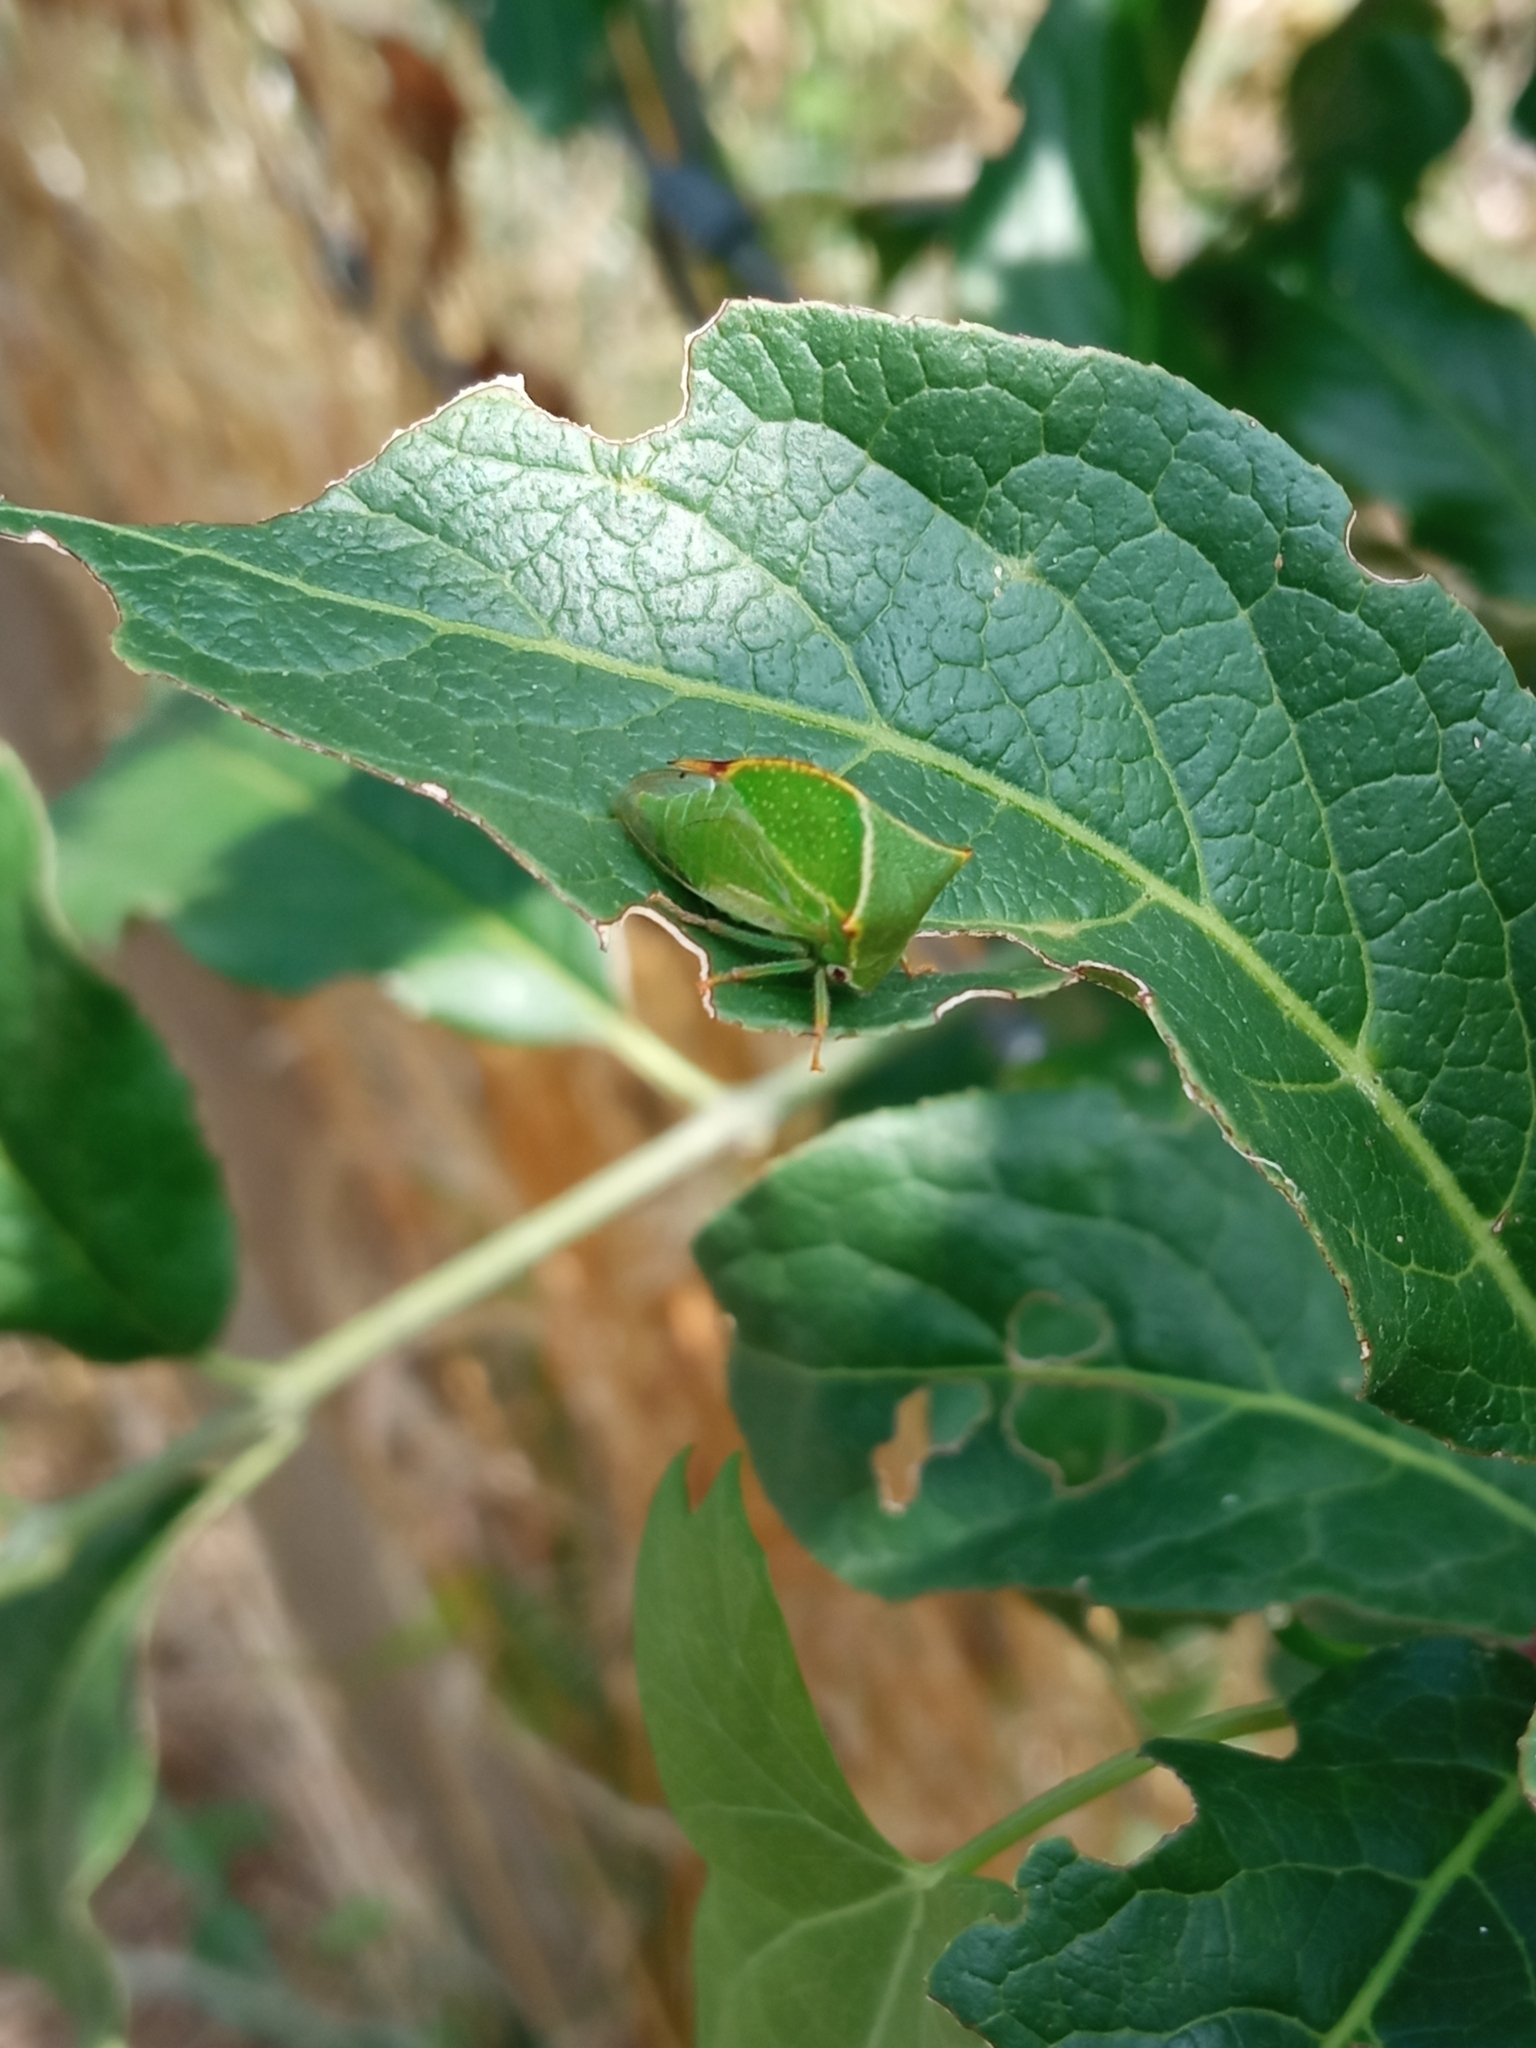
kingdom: Animalia
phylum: Arthropoda
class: Insecta
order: Hemiptera
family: Membracidae
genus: Stictocephala
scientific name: Stictocephala bisonia
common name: American buffalo treehopper
